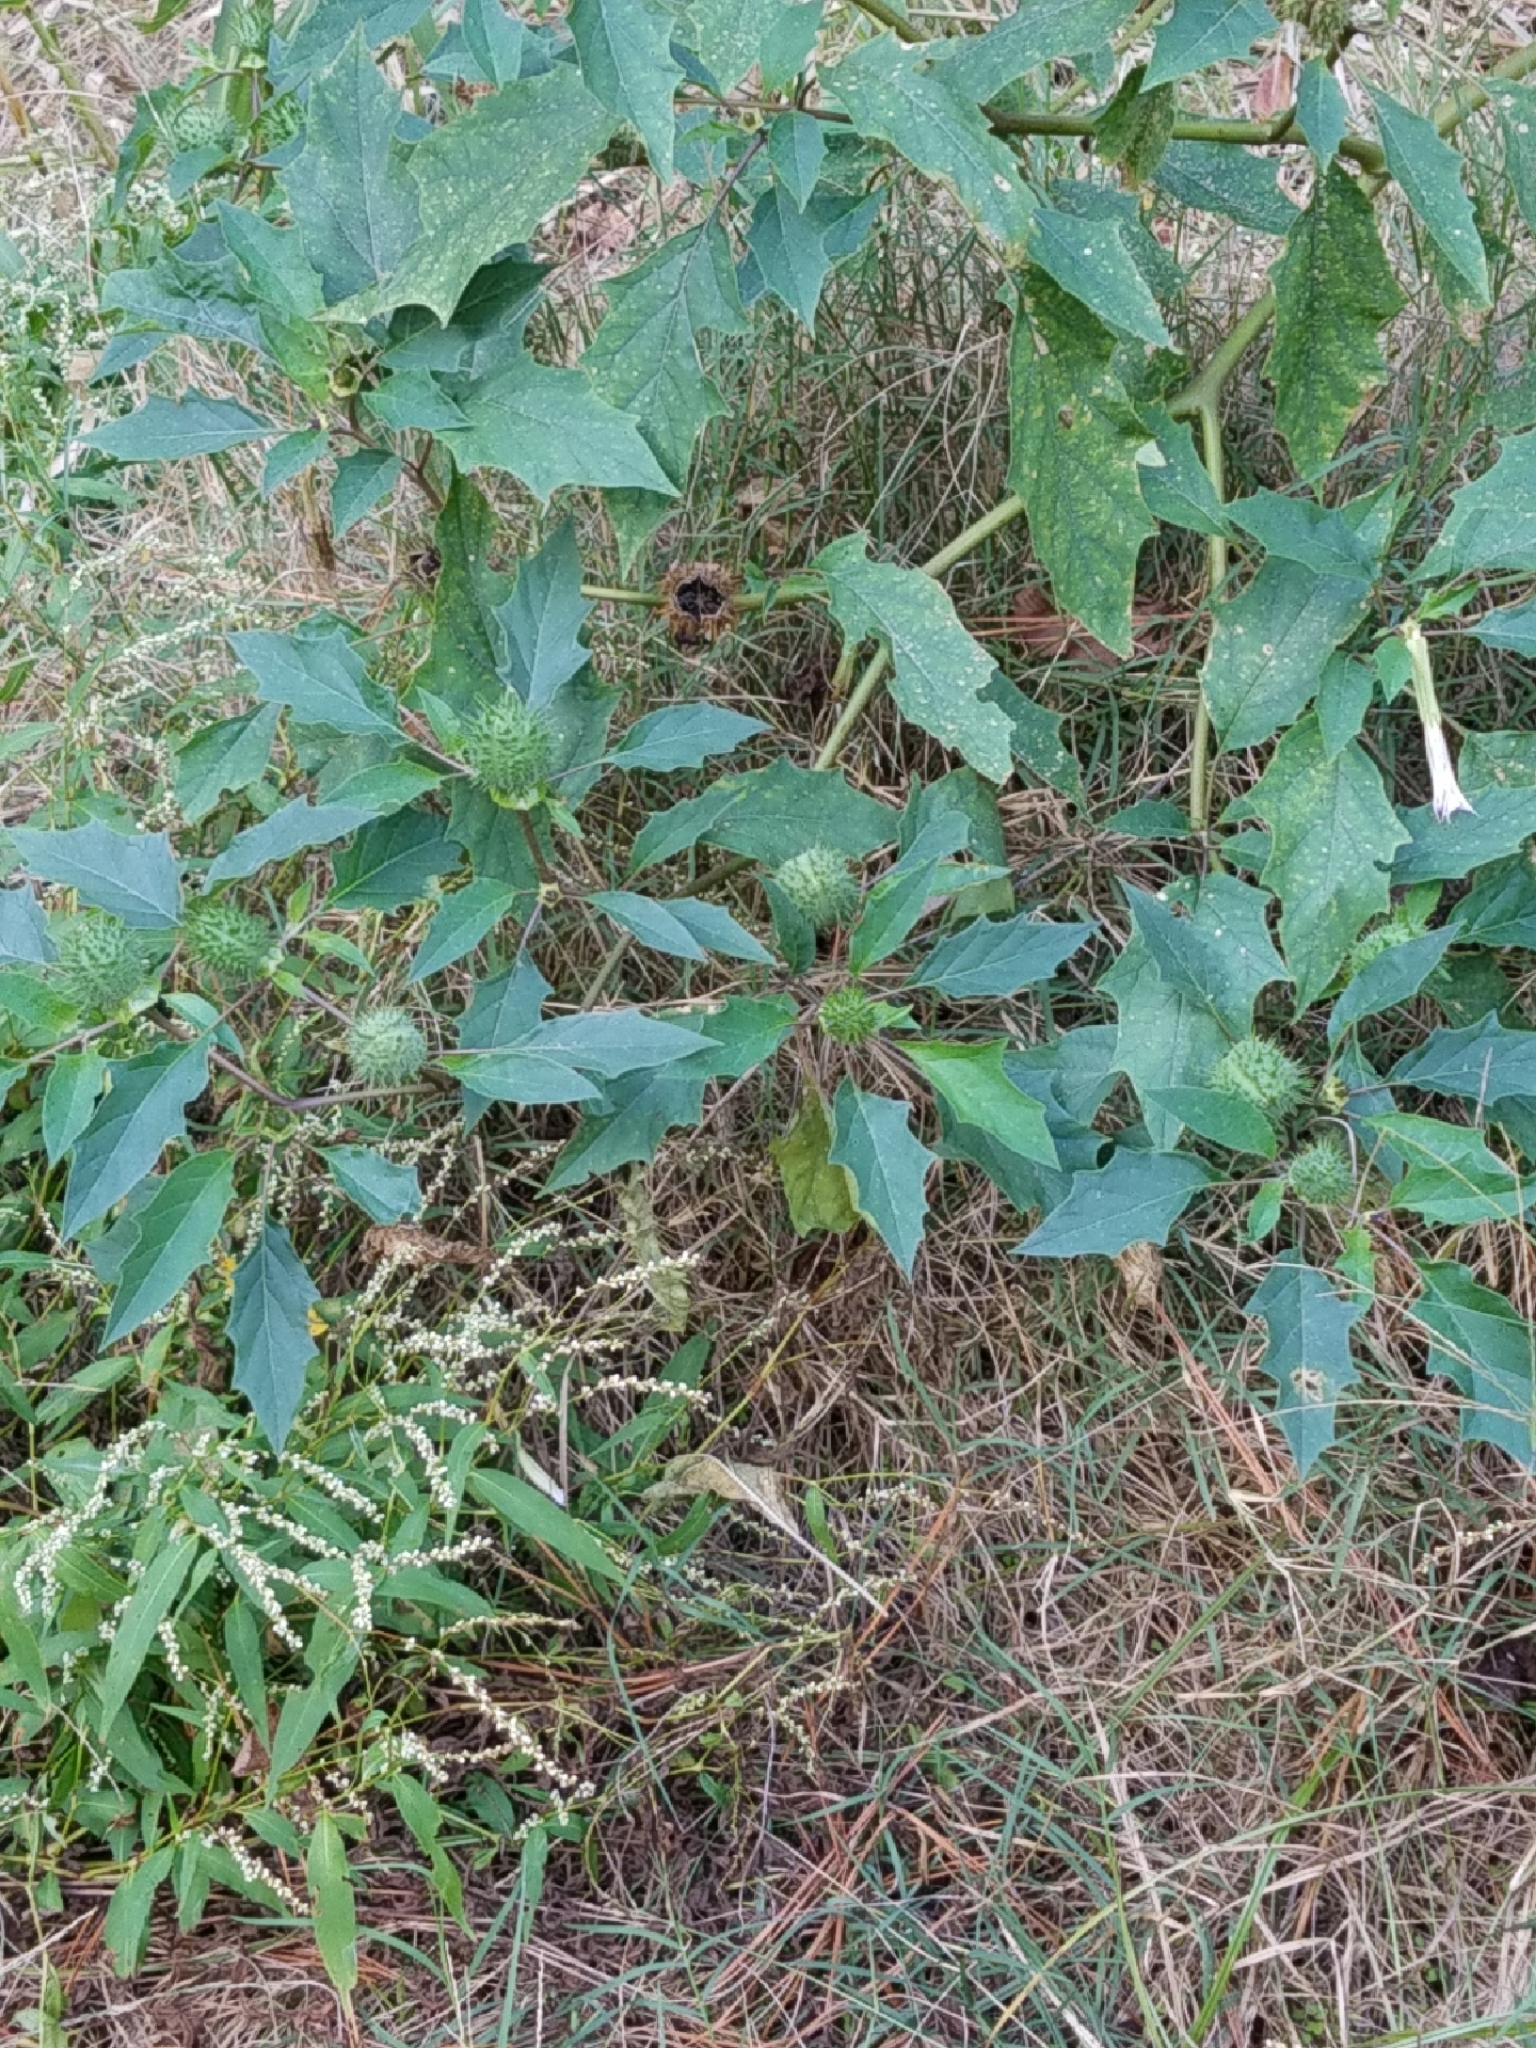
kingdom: Plantae
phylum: Tracheophyta
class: Magnoliopsida
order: Solanales
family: Solanaceae
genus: Datura
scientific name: Datura stramonium
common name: Thorn-apple
